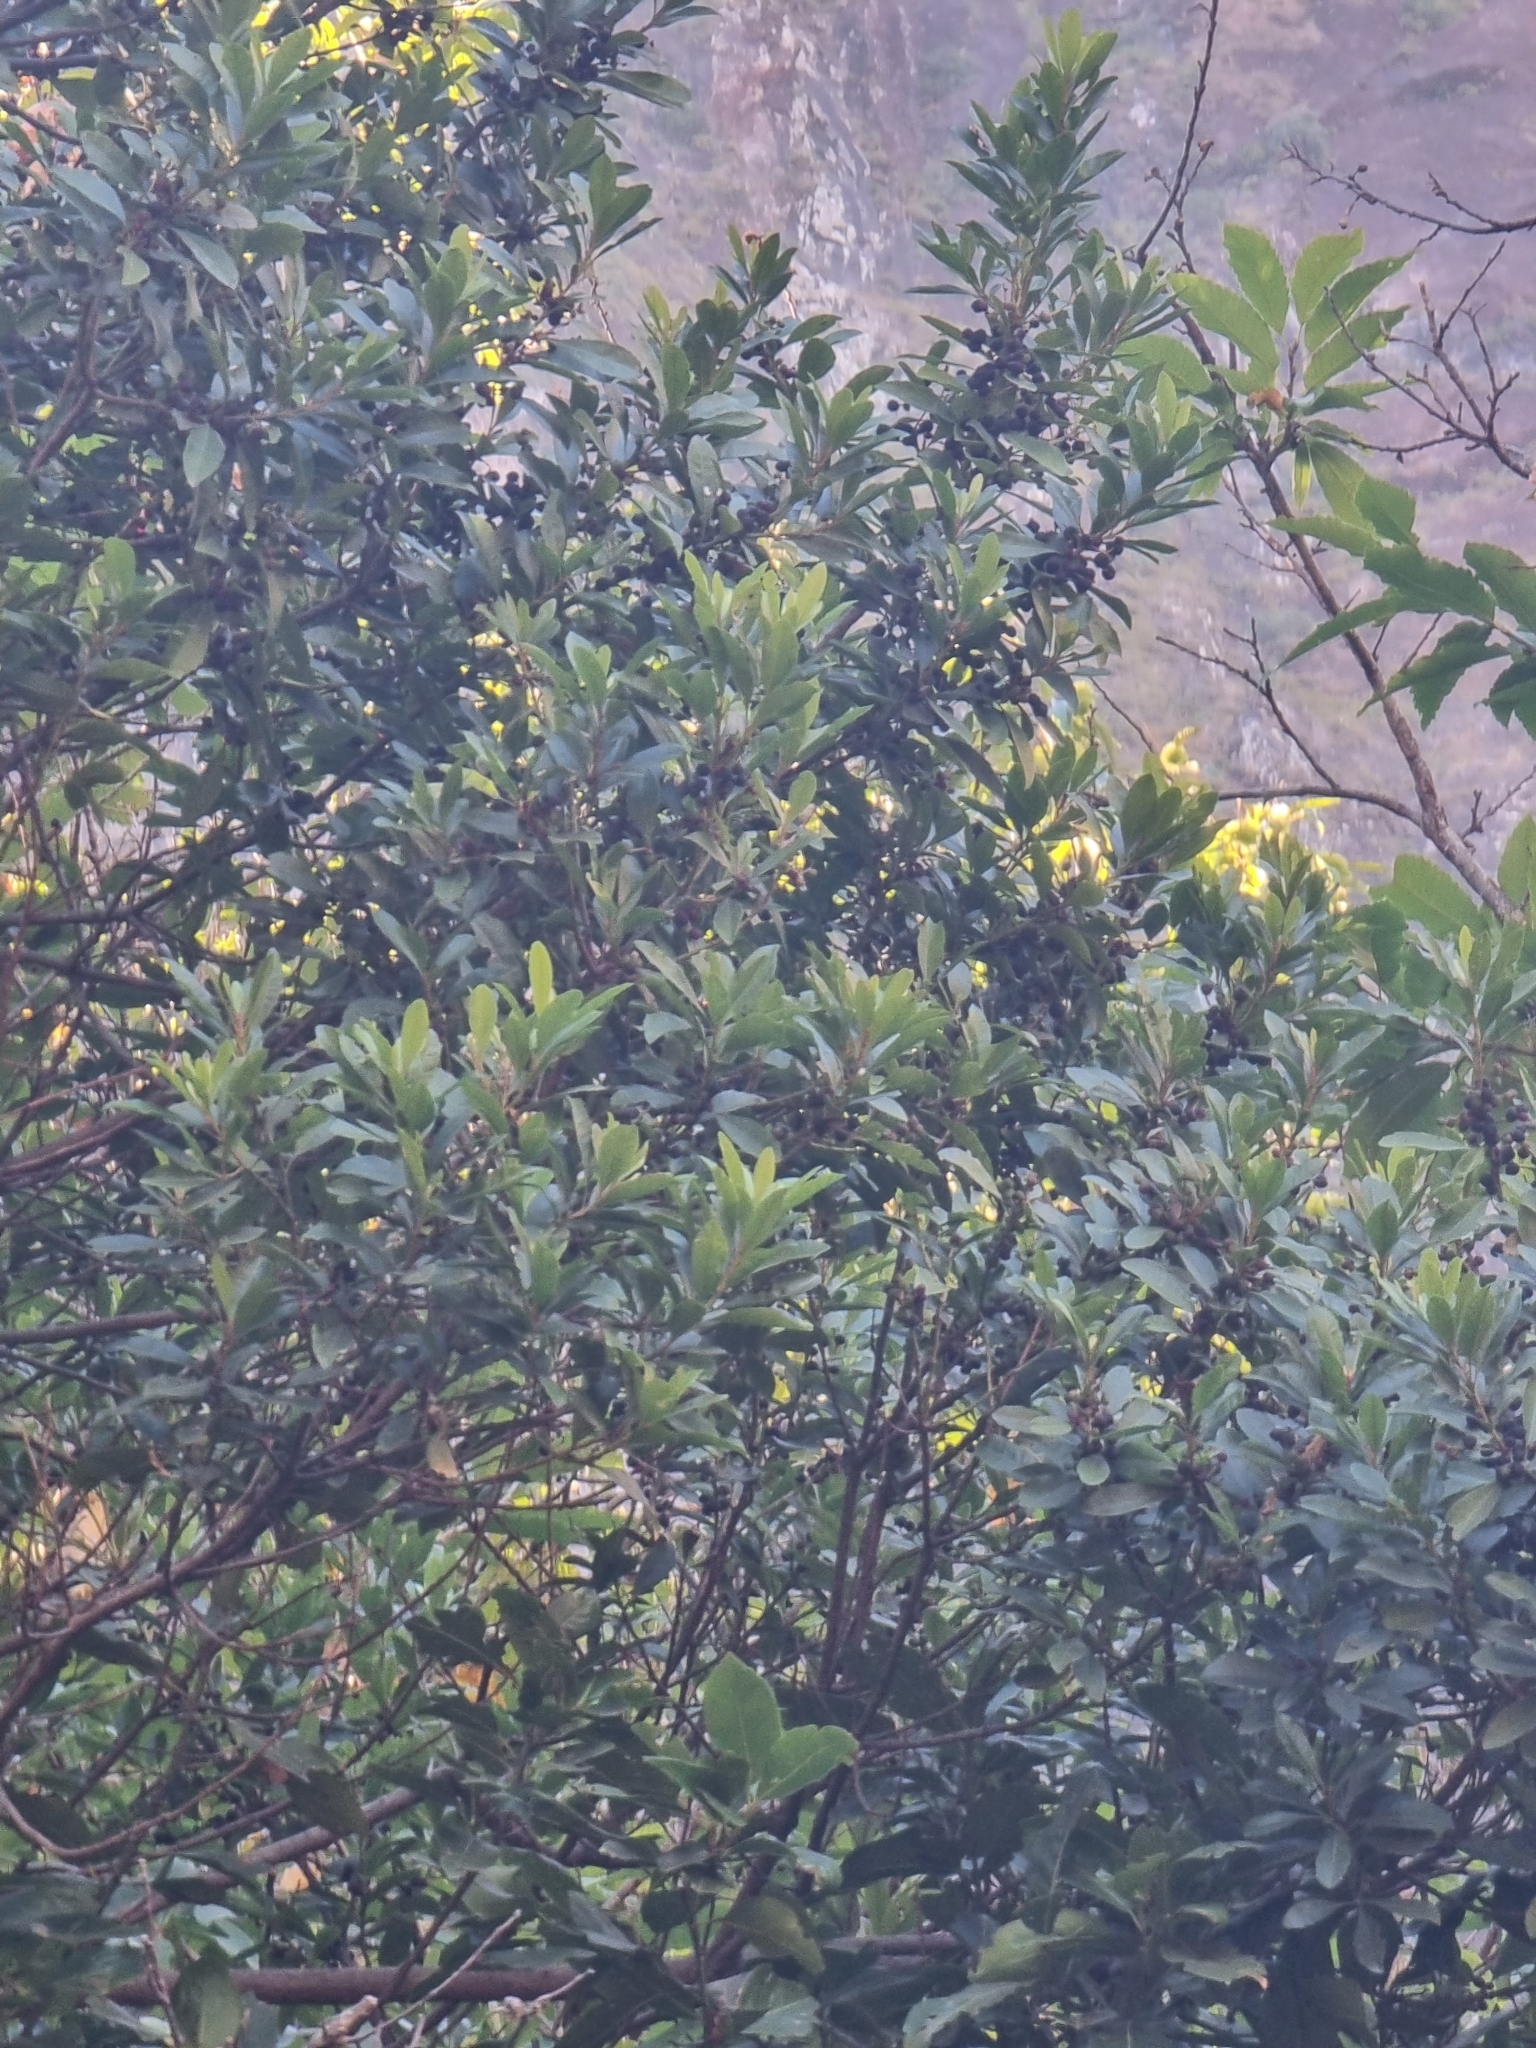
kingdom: Plantae
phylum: Tracheophyta
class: Magnoliopsida
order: Fagales
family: Myricaceae
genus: Morella
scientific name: Morella faya
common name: Firetree
